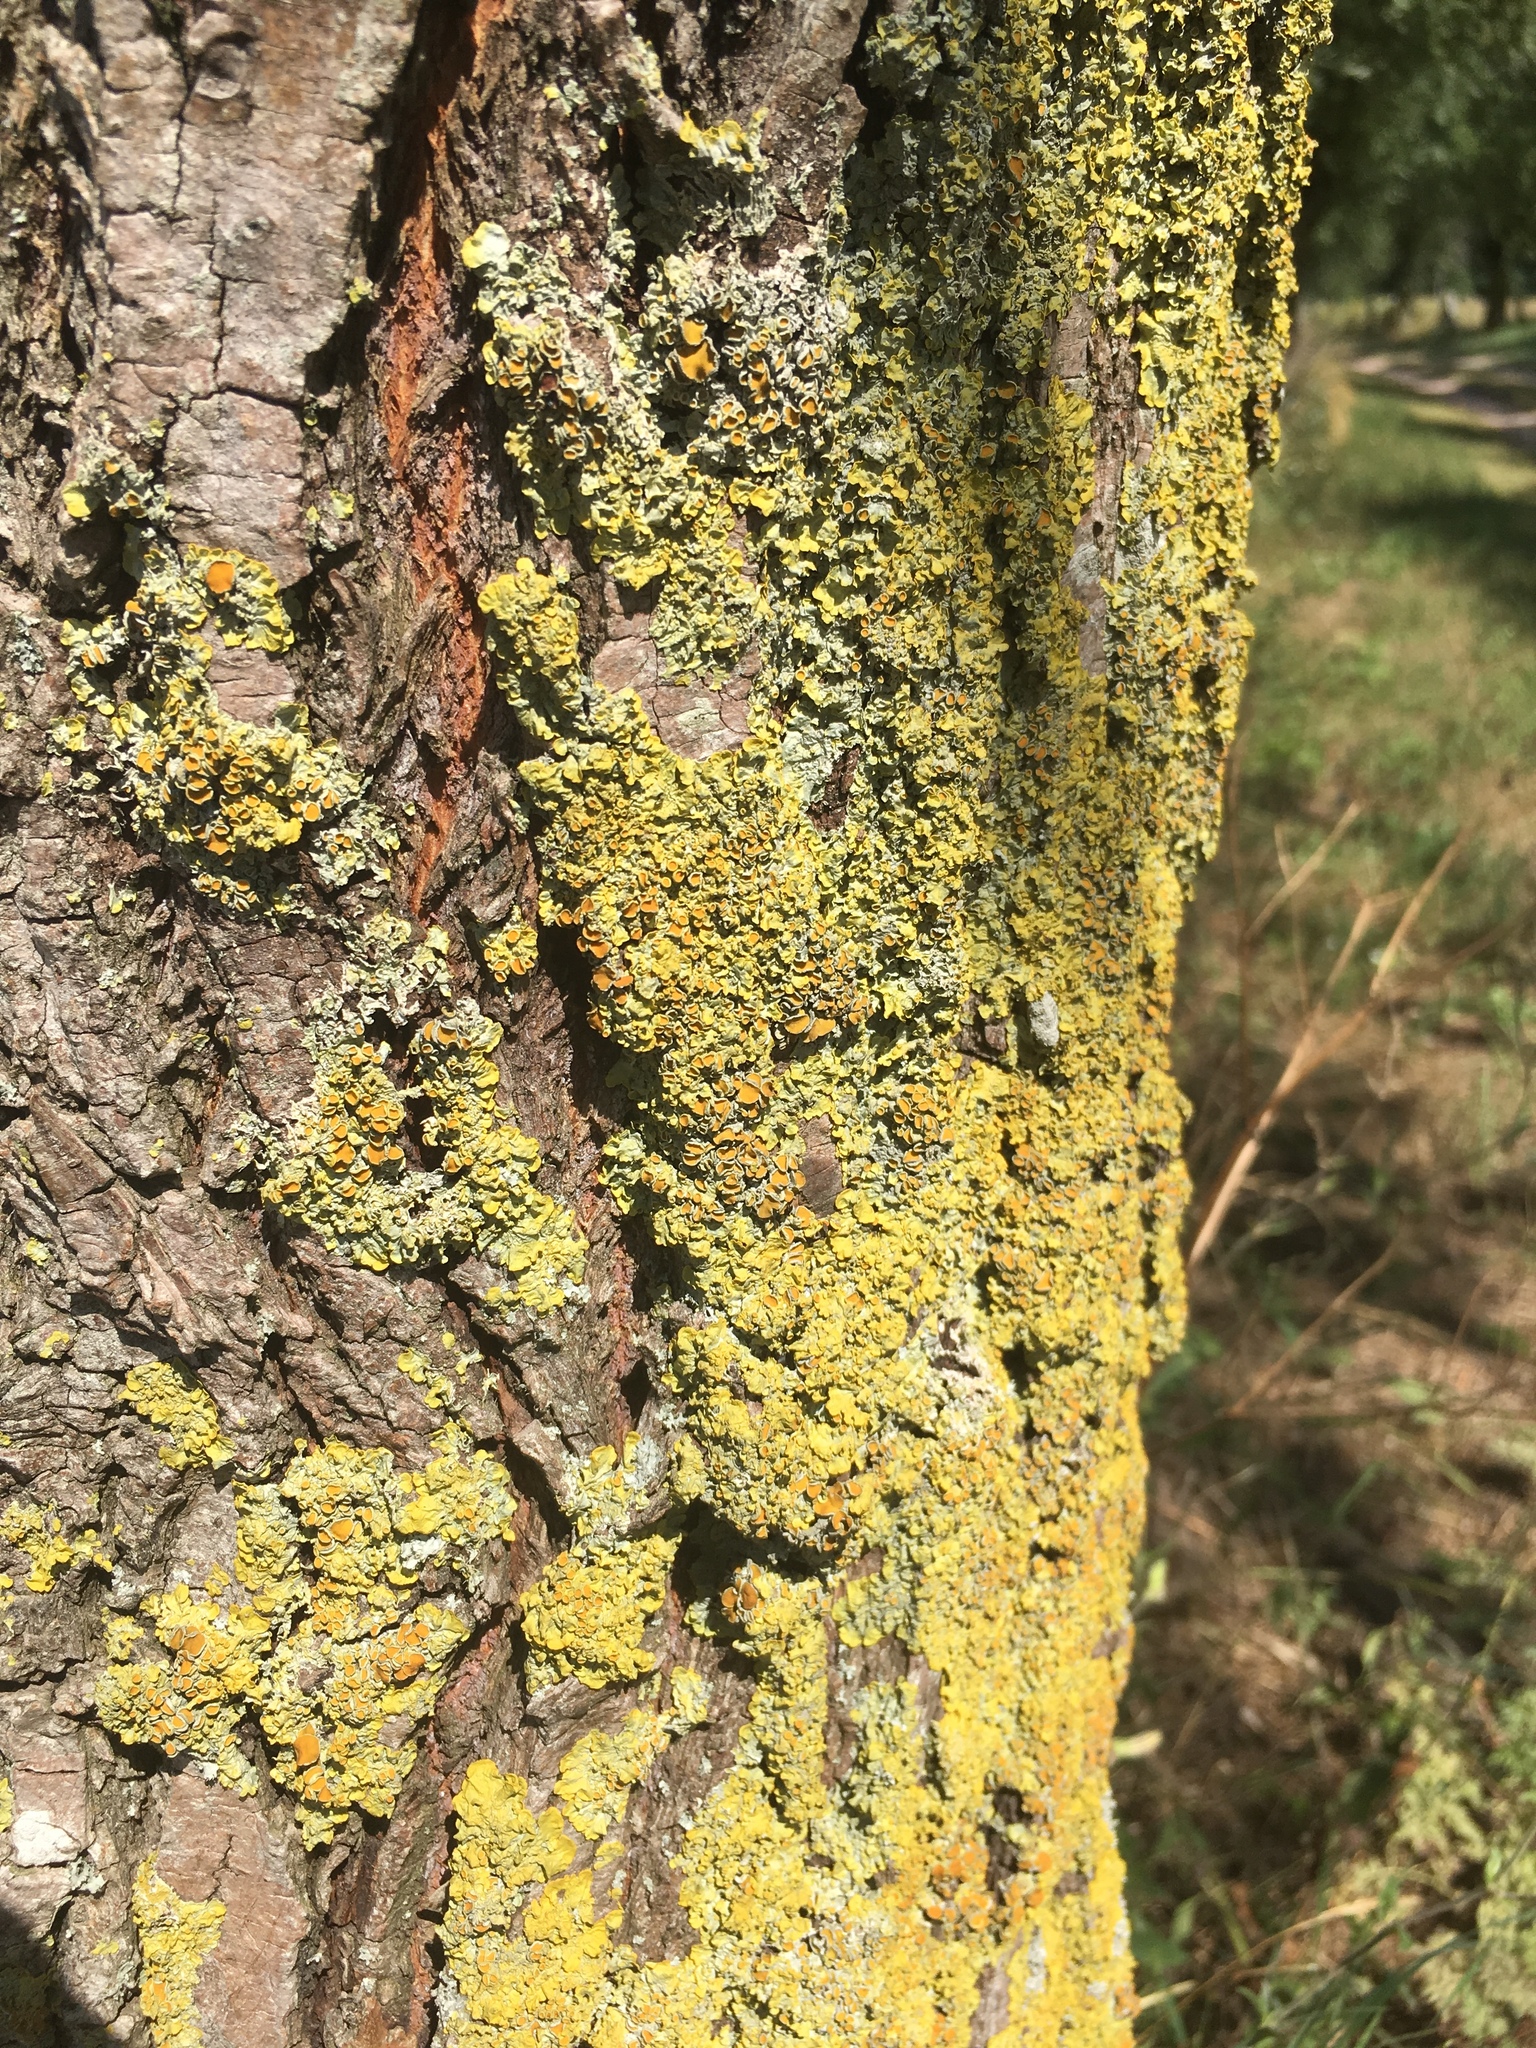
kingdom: Fungi
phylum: Ascomycota
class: Lecanoromycetes
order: Teloschistales
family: Teloschistaceae
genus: Xanthoria
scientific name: Xanthoria parietina
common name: Common orange lichen
